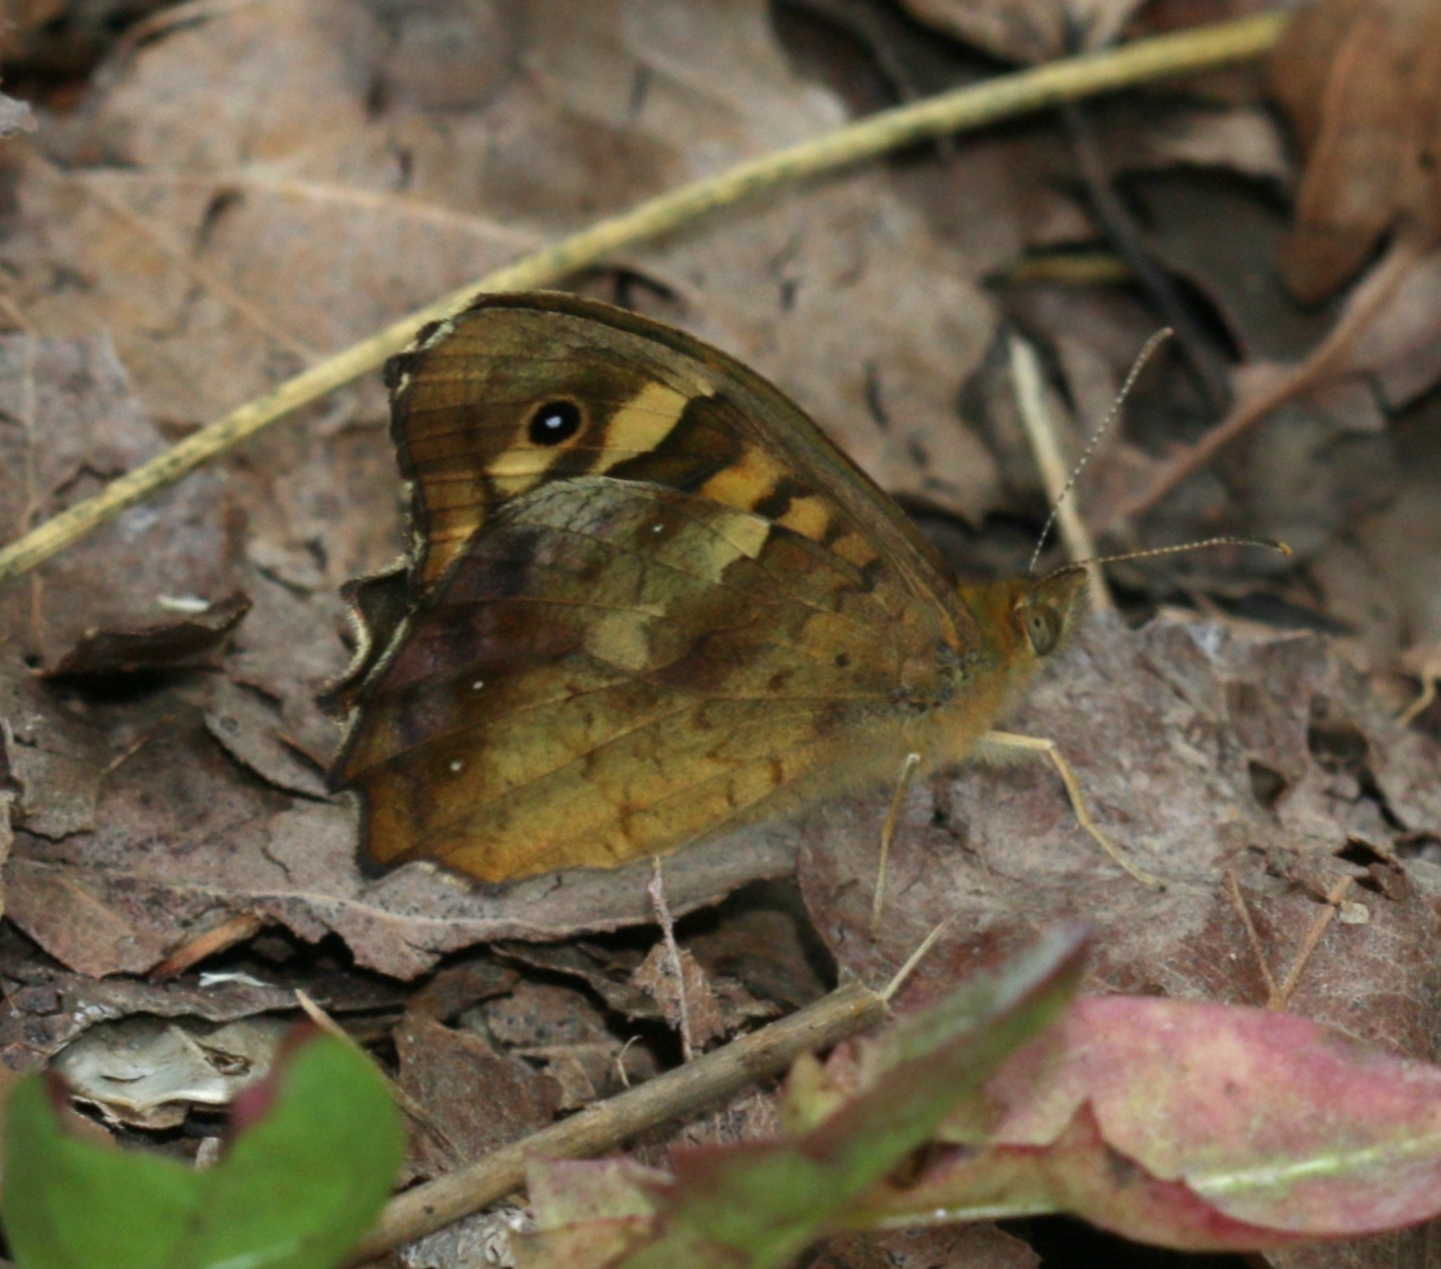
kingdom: Animalia
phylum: Arthropoda
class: Insecta
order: Lepidoptera
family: Nymphalidae
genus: Pararge
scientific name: Pararge aegeria
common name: Speckled wood
